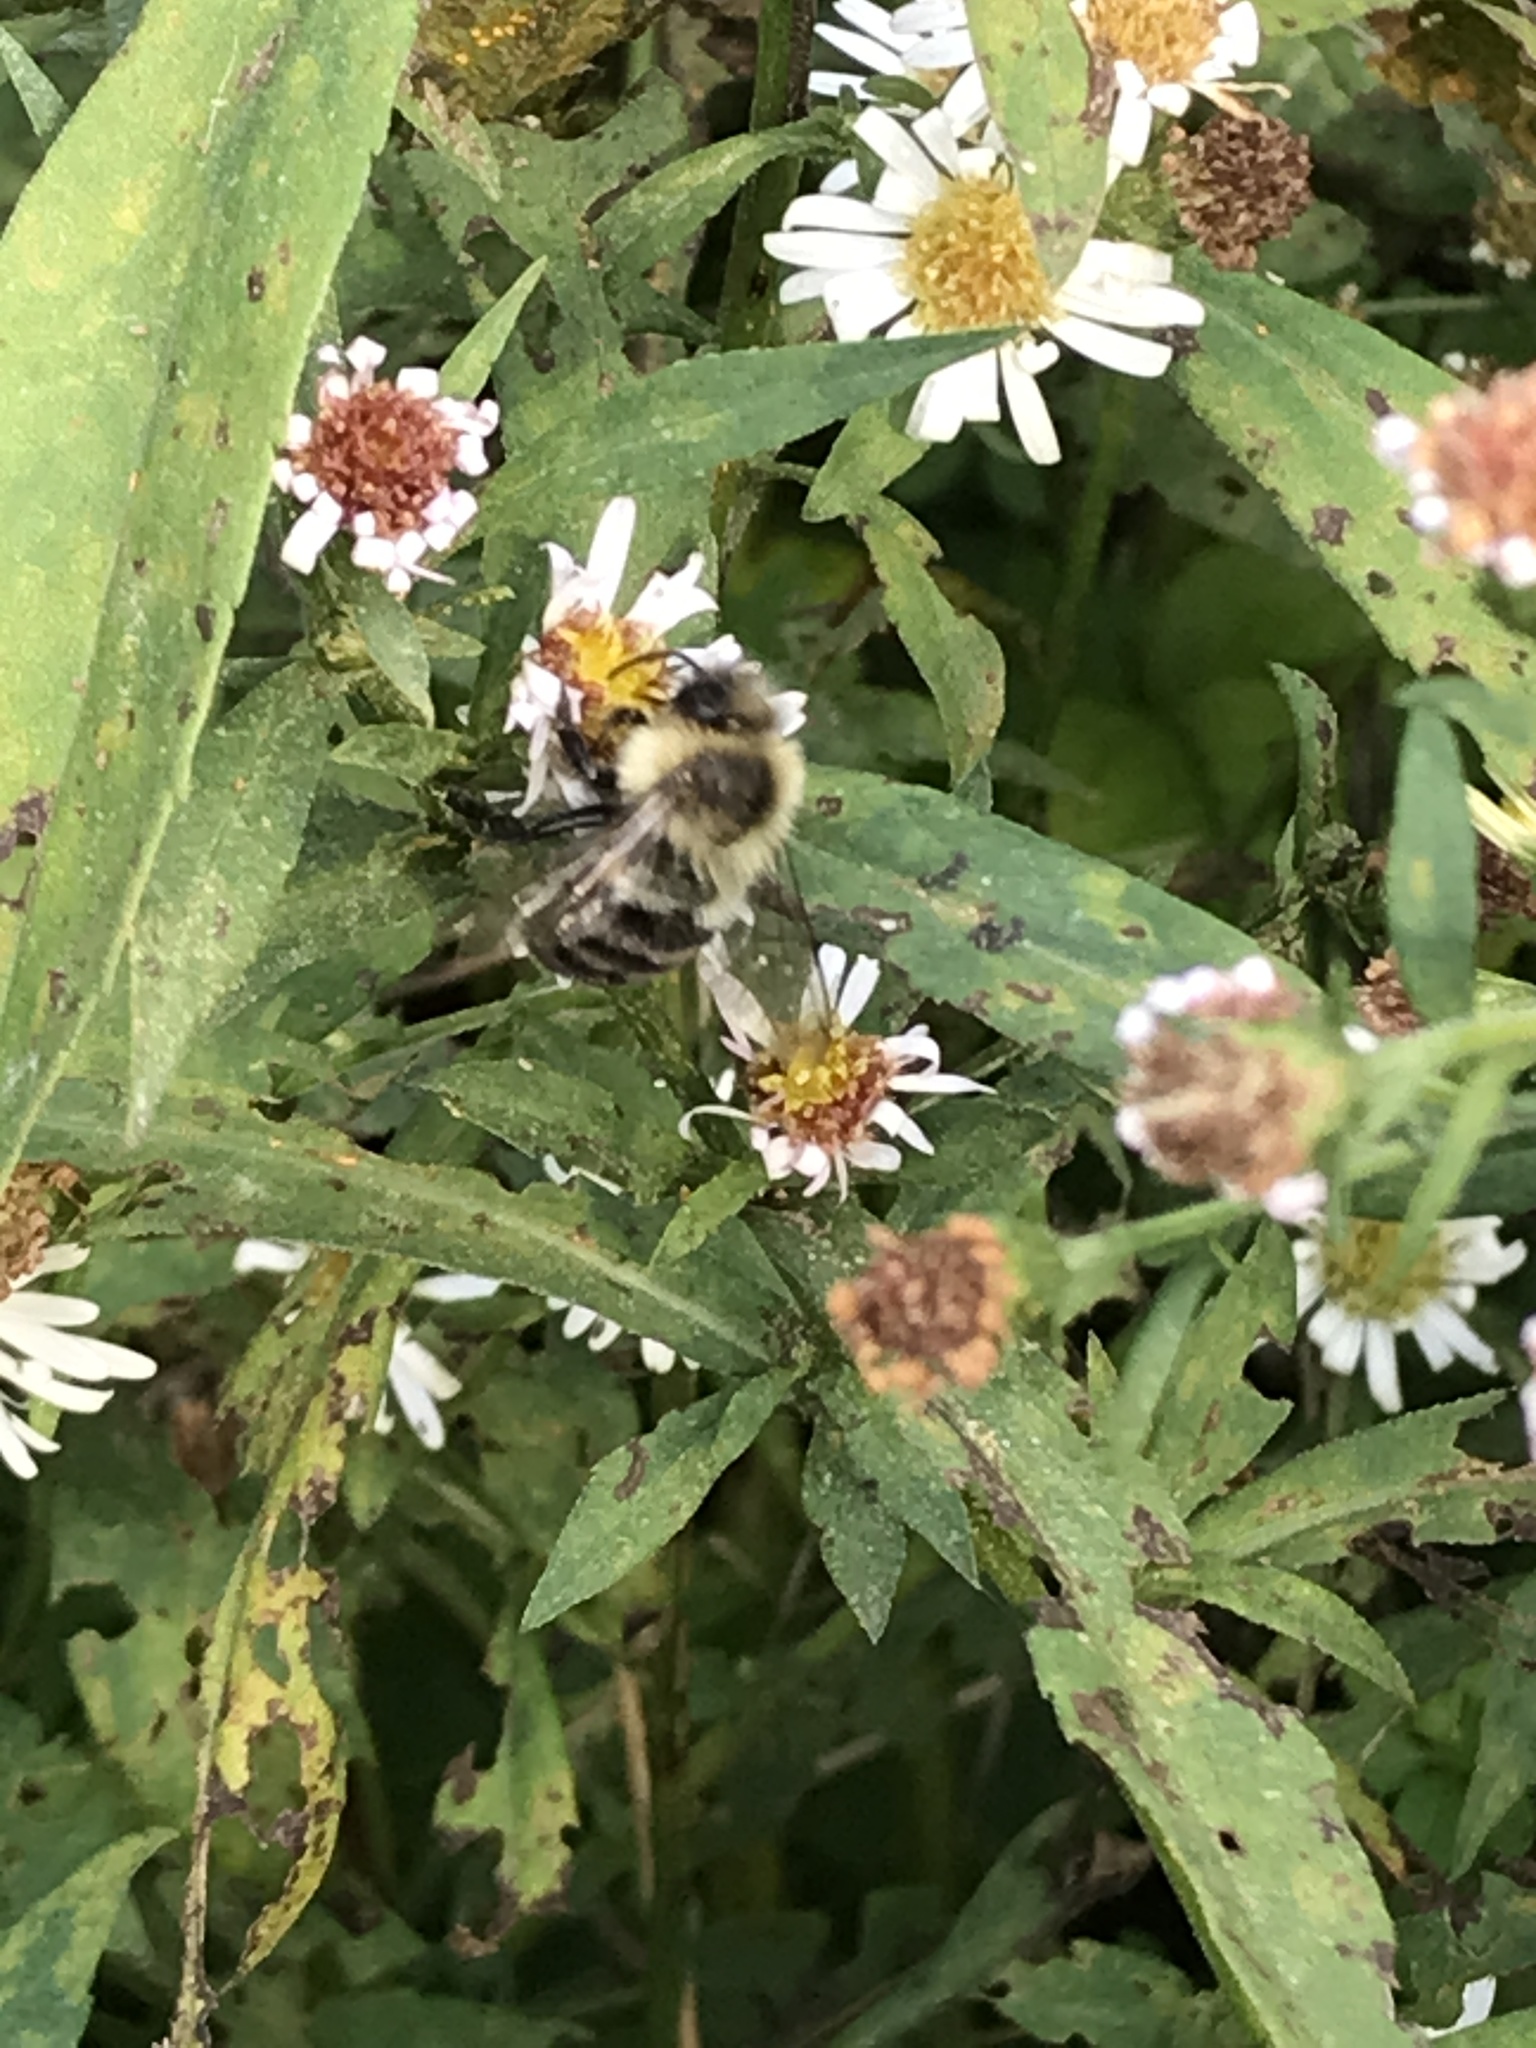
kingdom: Animalia
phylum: Arthropoda
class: Insecta
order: Hymenoptera
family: Apidae
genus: Bombus
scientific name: Bombus impatiens
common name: Common eastern bumble bee
